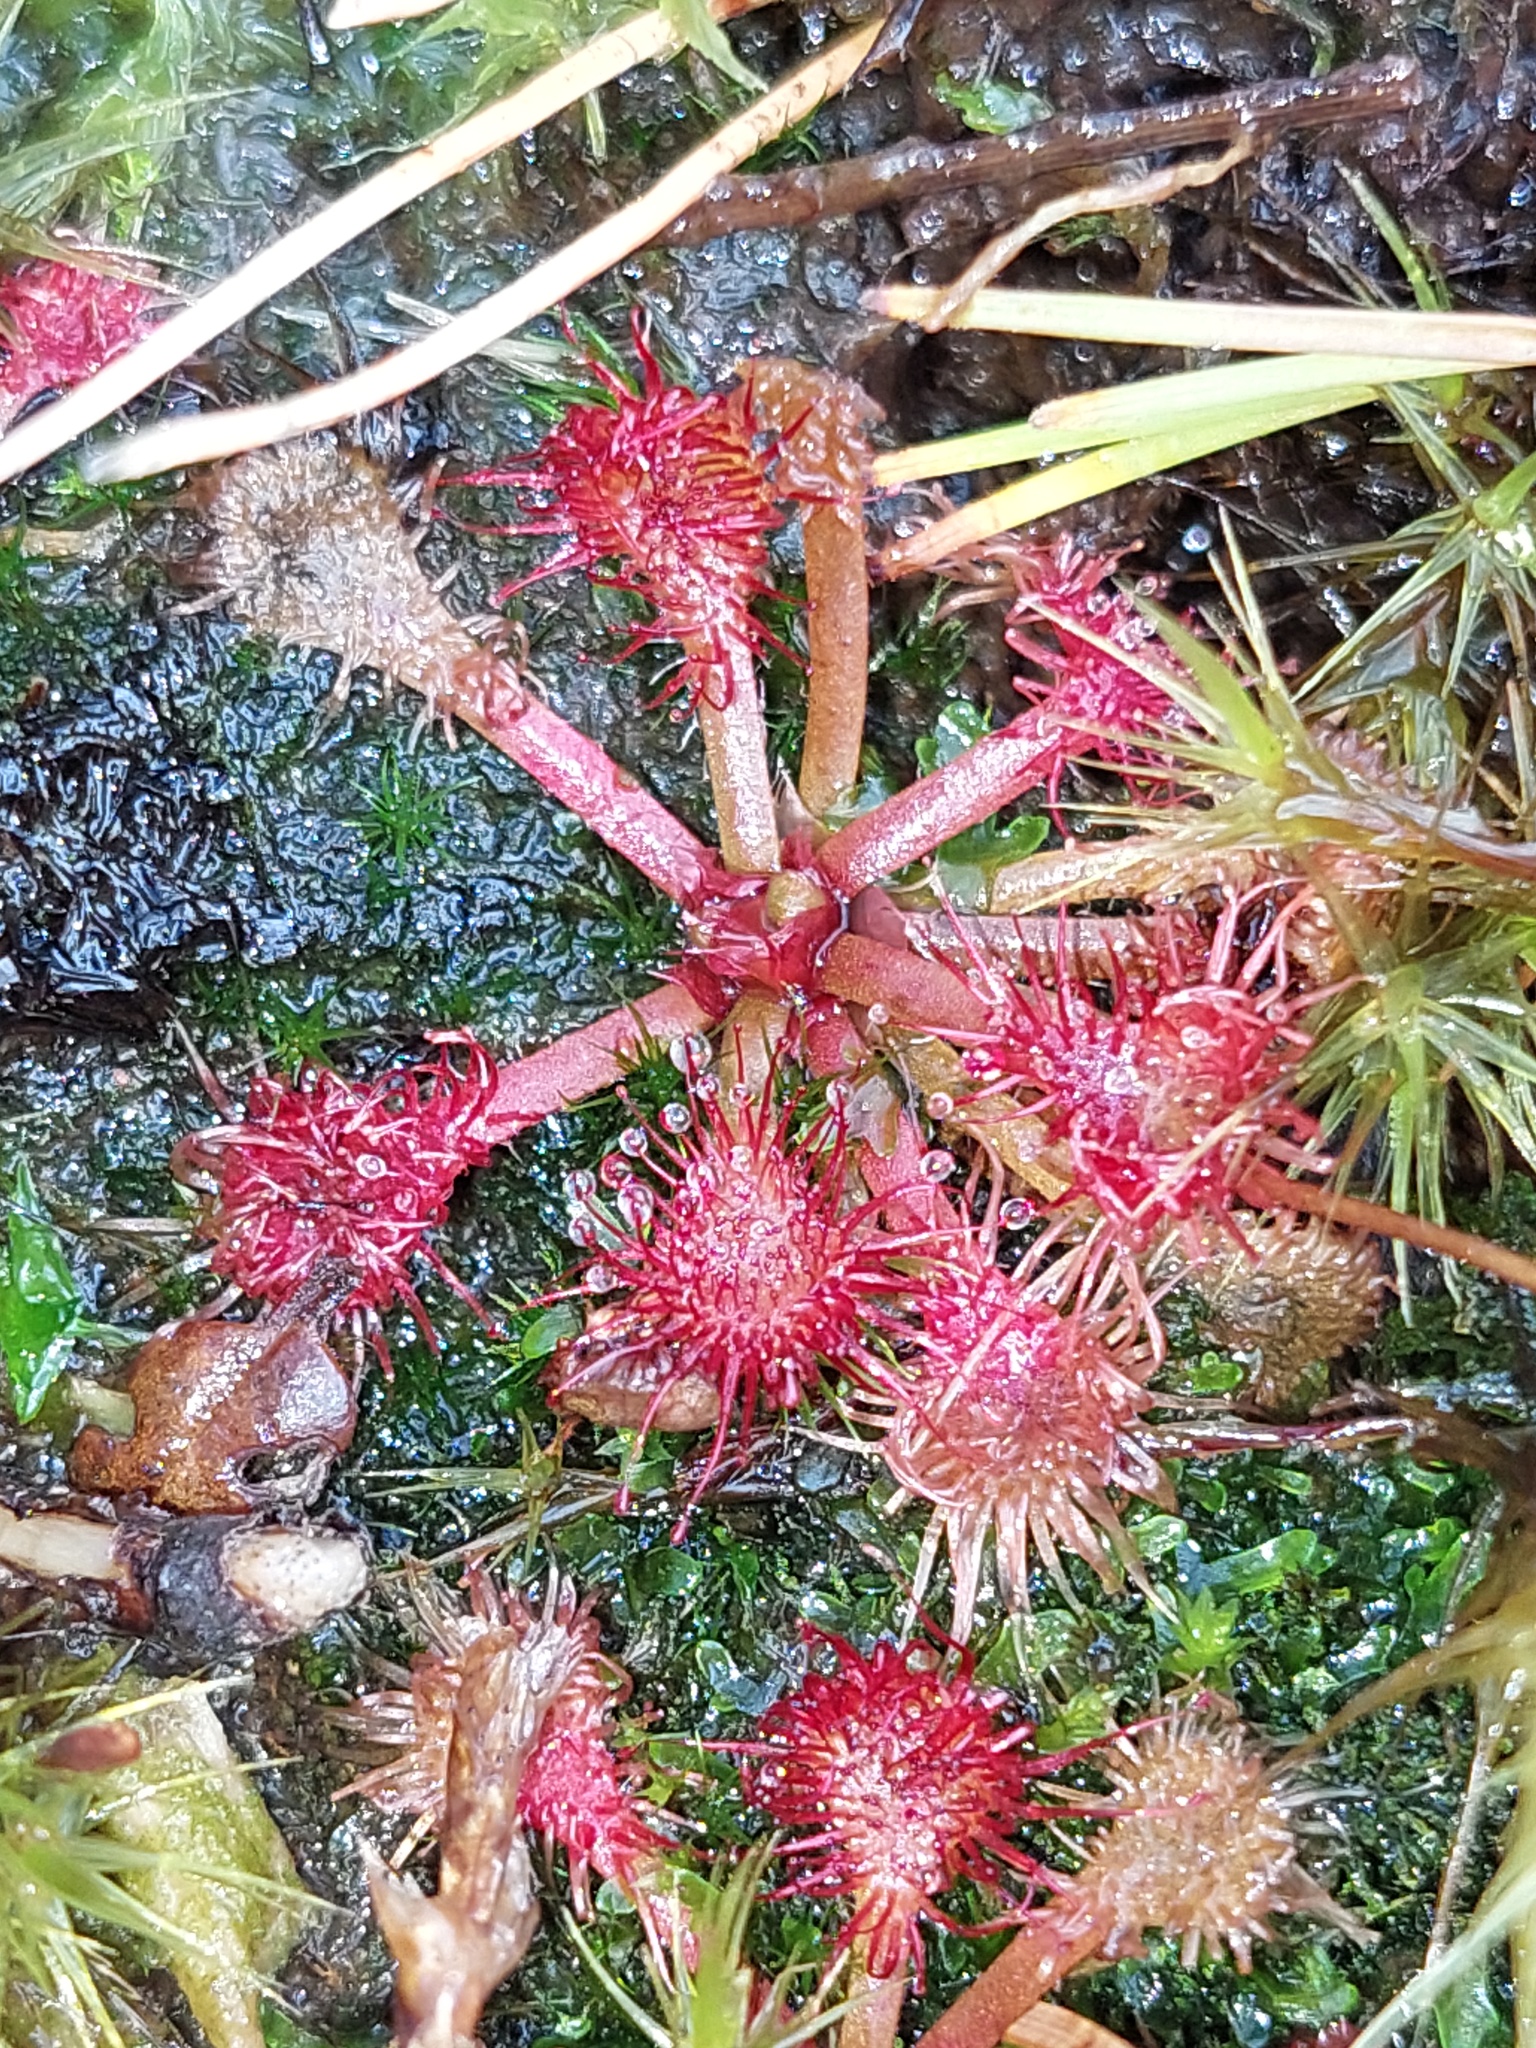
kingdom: Plantae
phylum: Tracheophyta
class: Magnoliopsida
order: Caryophyllales
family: Droseraceae
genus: Drosera
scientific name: Drosera spatulata
